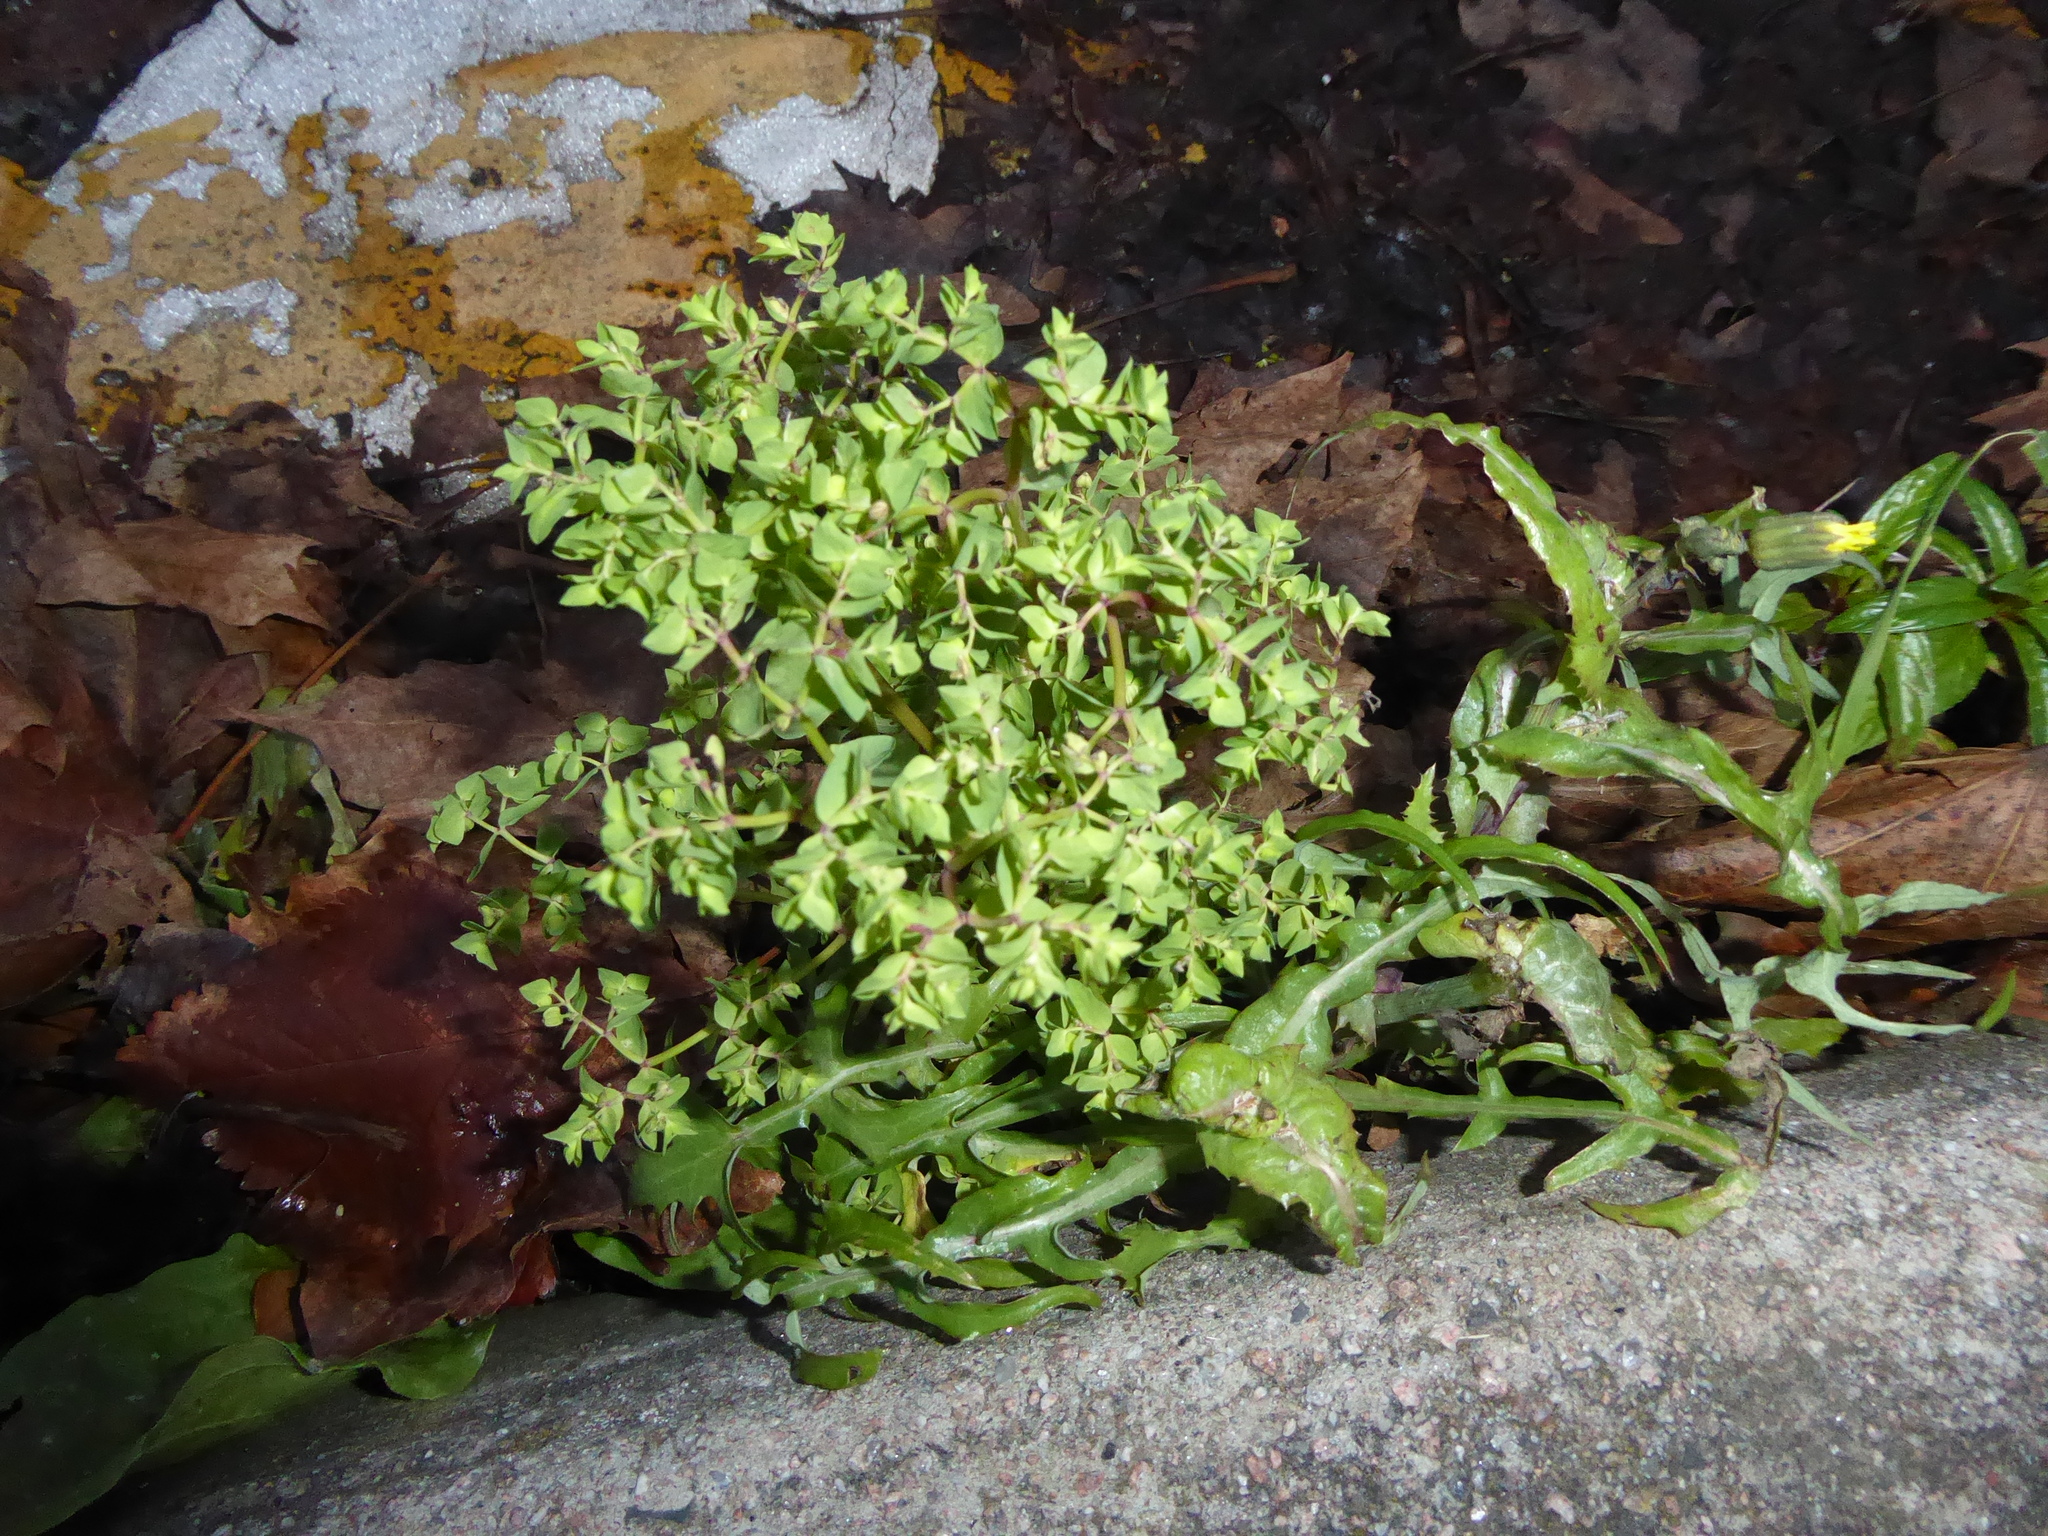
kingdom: Plantae
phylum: Tracheophyta
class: Magnoliopsida
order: Malpighiales
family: Euphorbiaceae
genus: Euphorbia
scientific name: Euphorbia peplus
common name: Petty spurge
